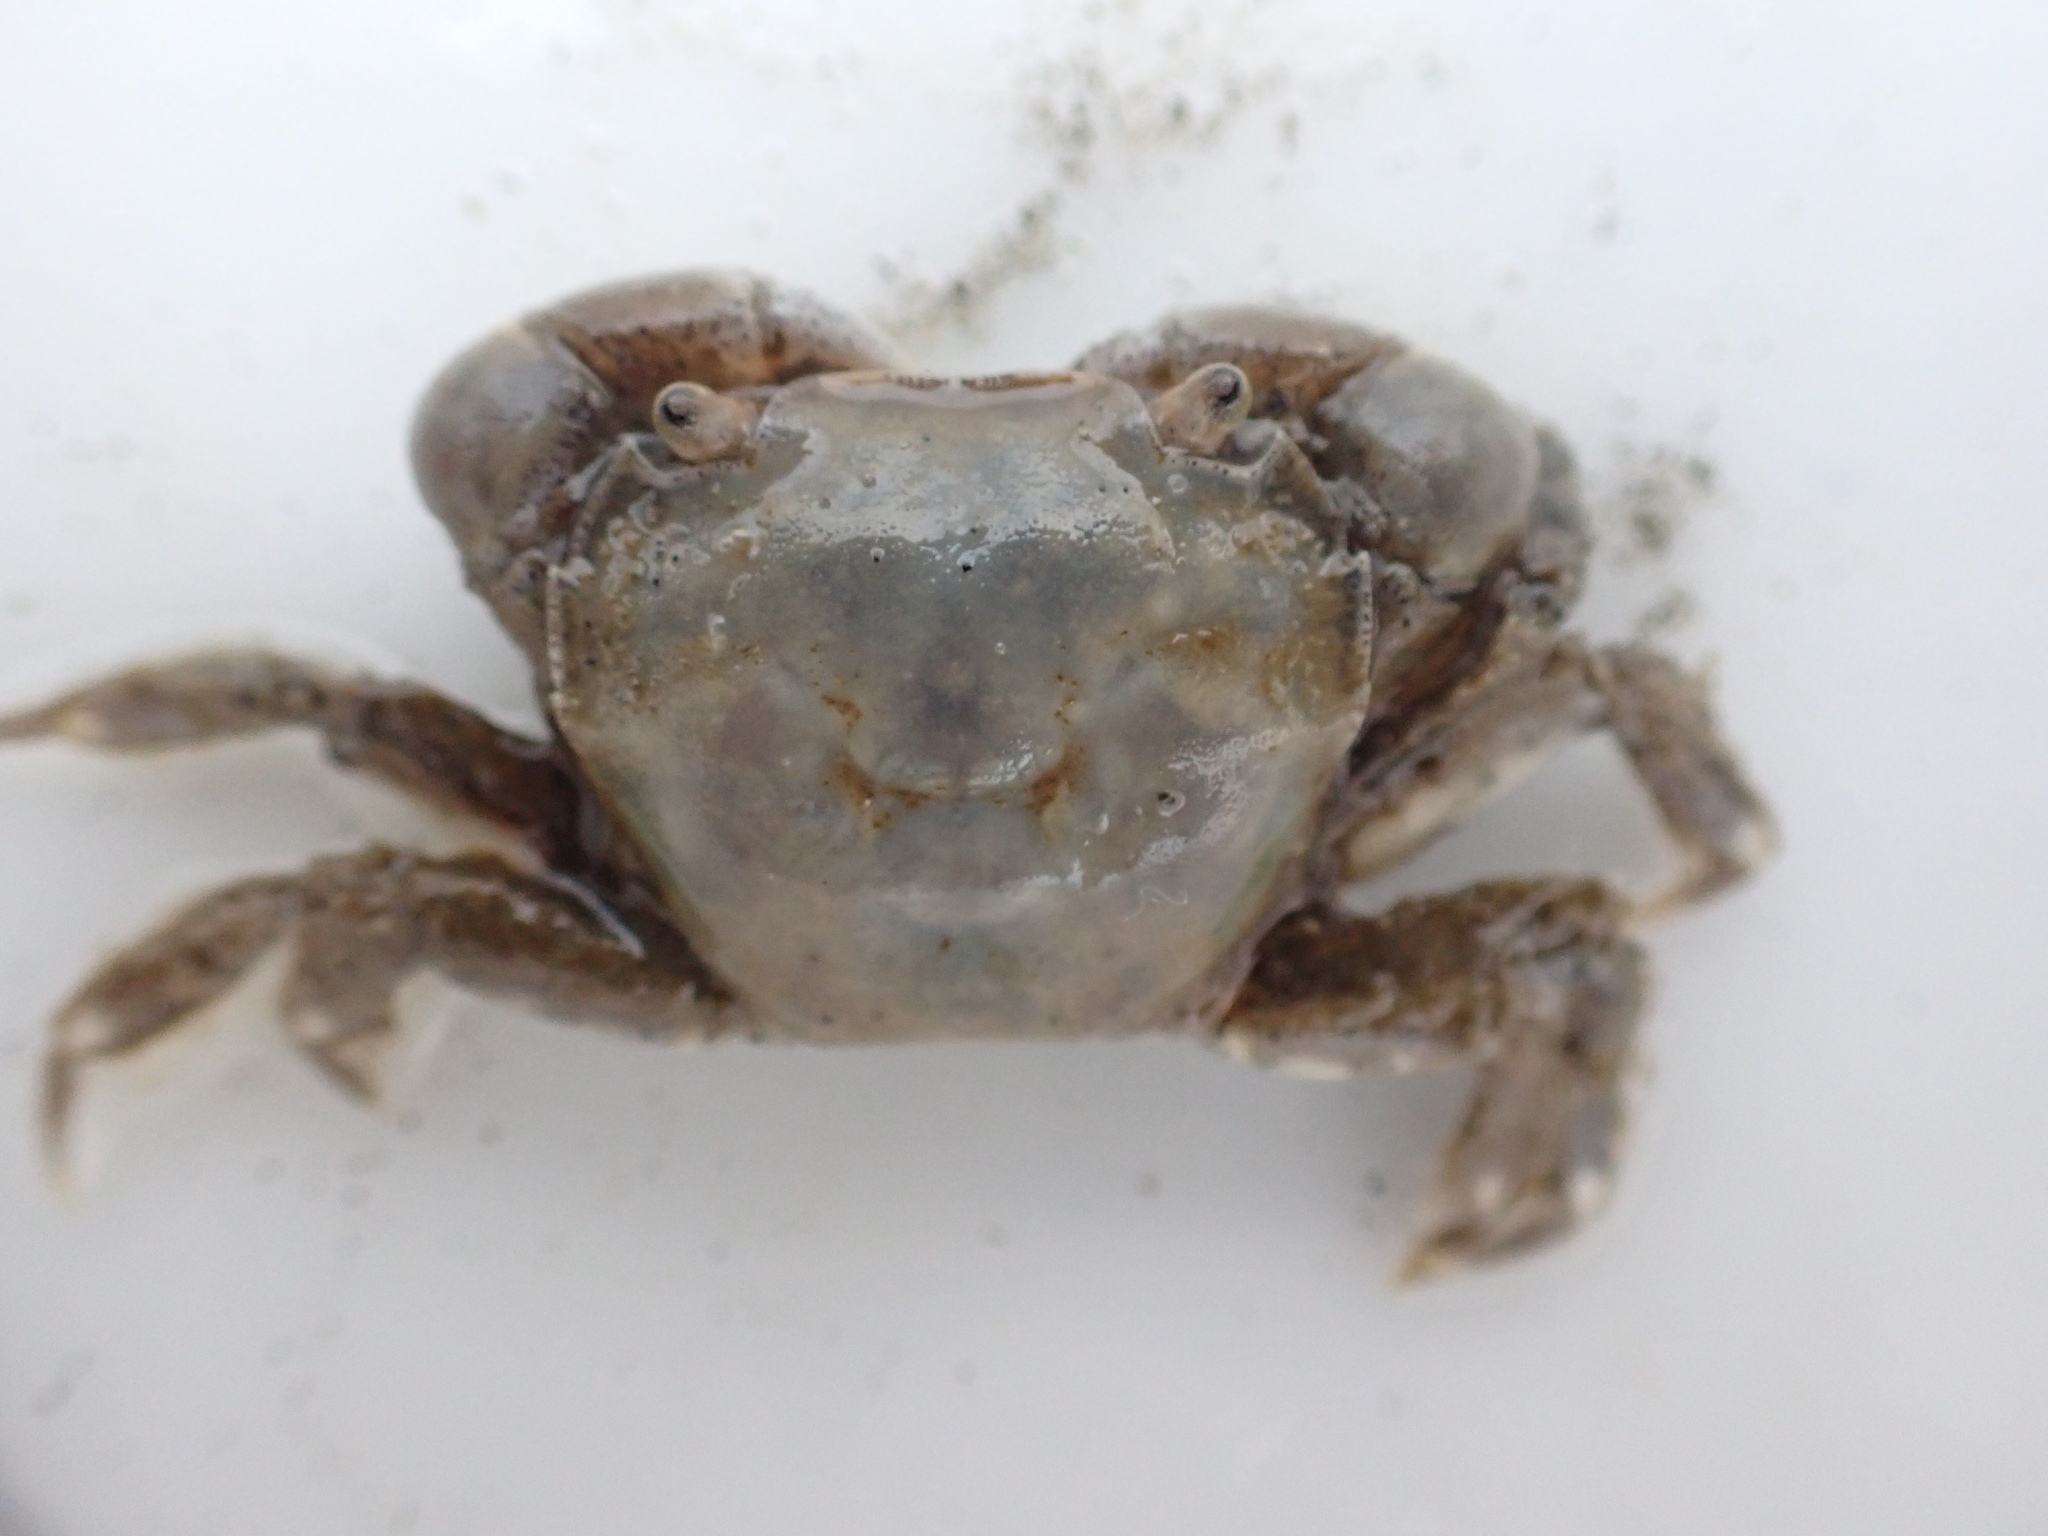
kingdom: Animalia
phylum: Arthropoda
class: Malacostraca
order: Decapoda
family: Varunidae
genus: Hemigrapsus
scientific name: Hemigrapsus crenulatus
